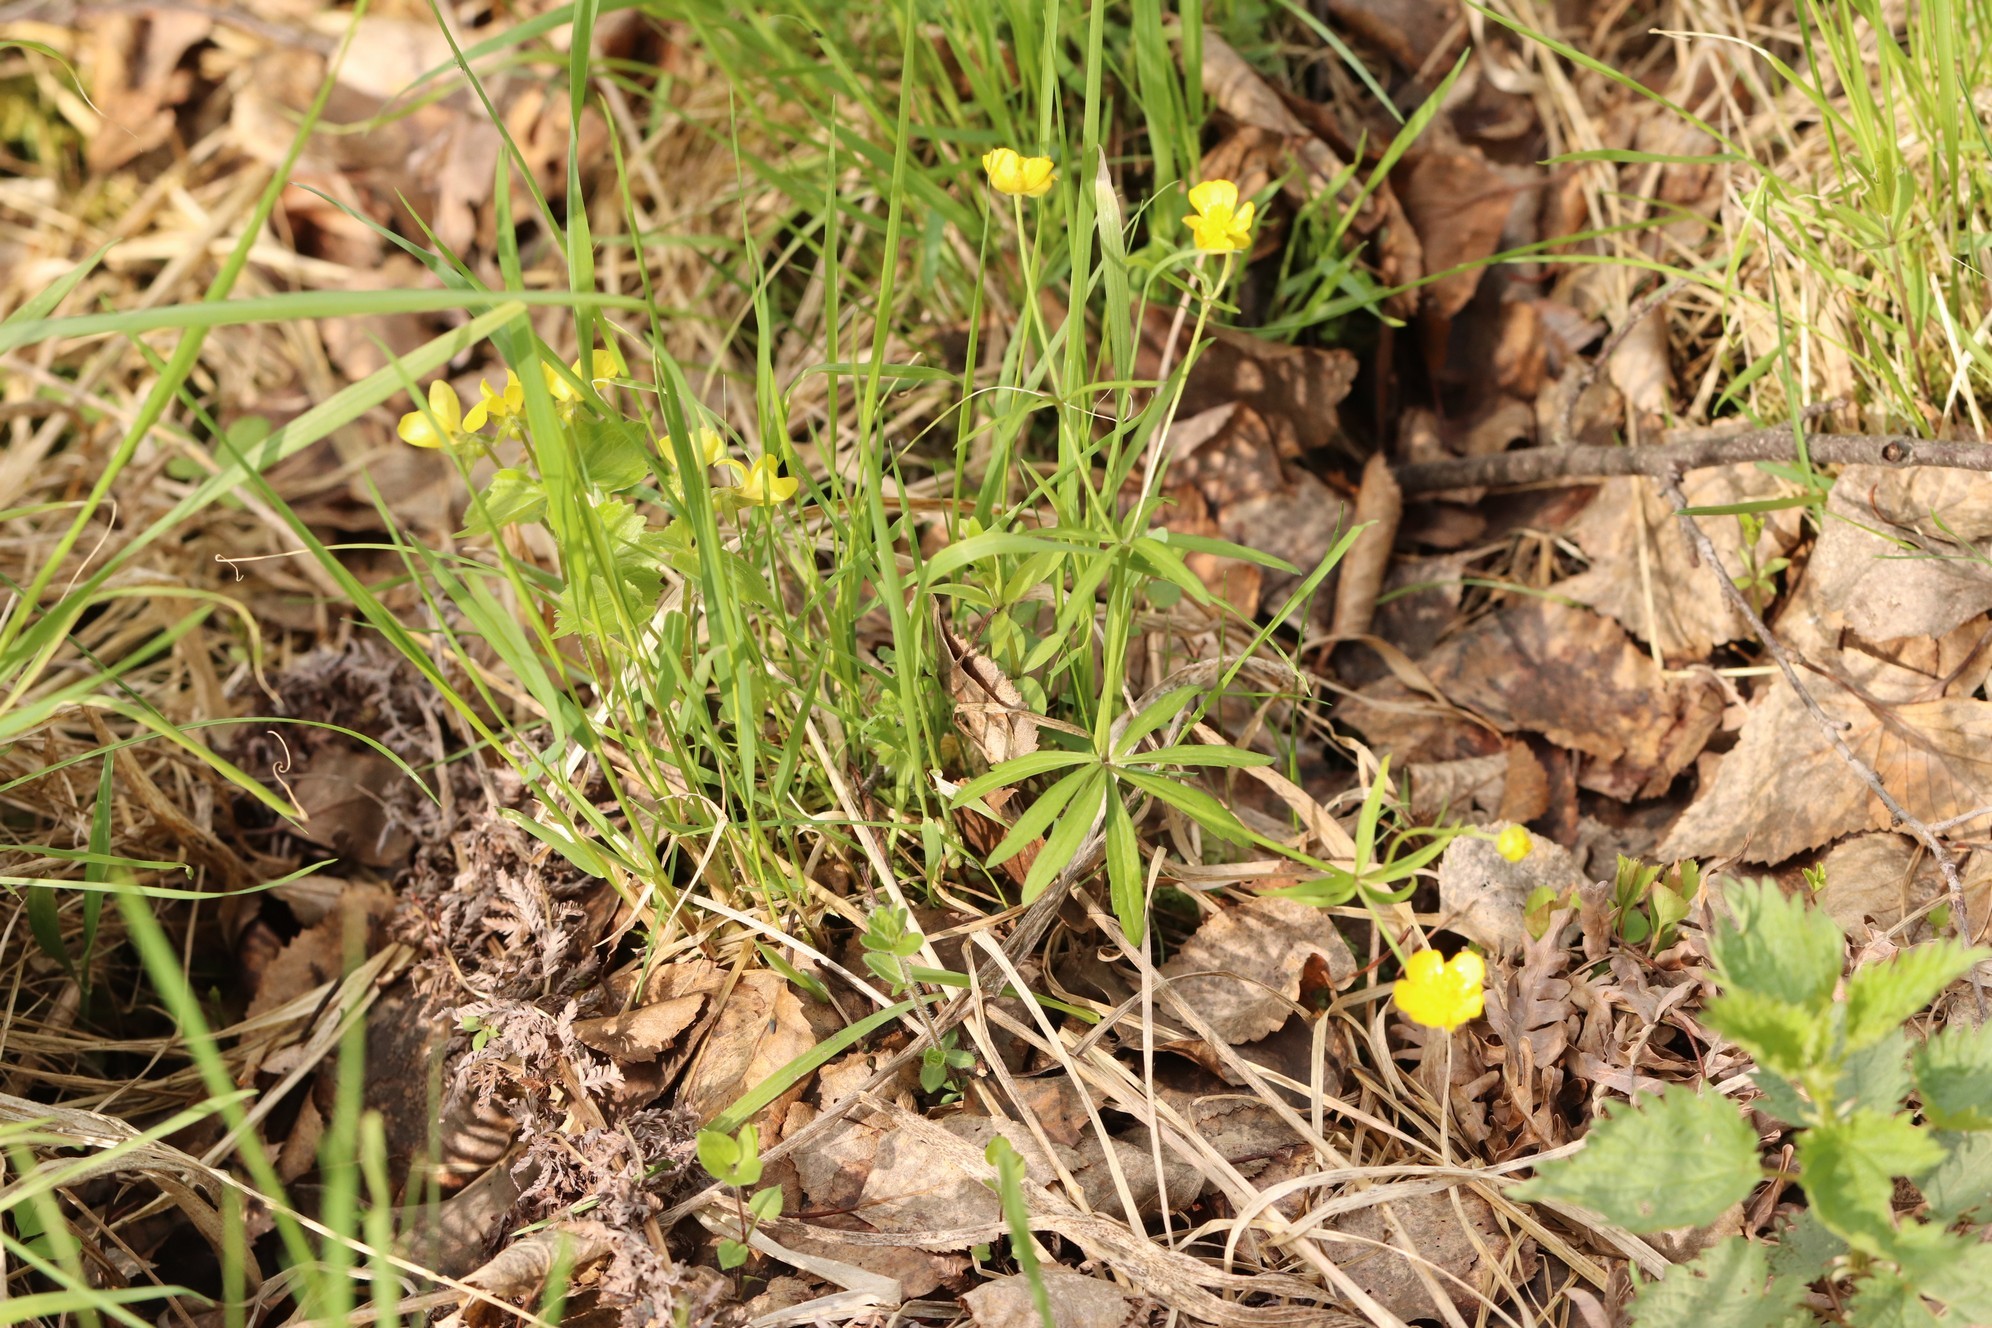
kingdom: Plantae
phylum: Tracheophyta
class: Magnoliopsida
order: Ranunculales
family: Ranunculaceae
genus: Ranunculus
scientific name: Ranunculus monophyllus
